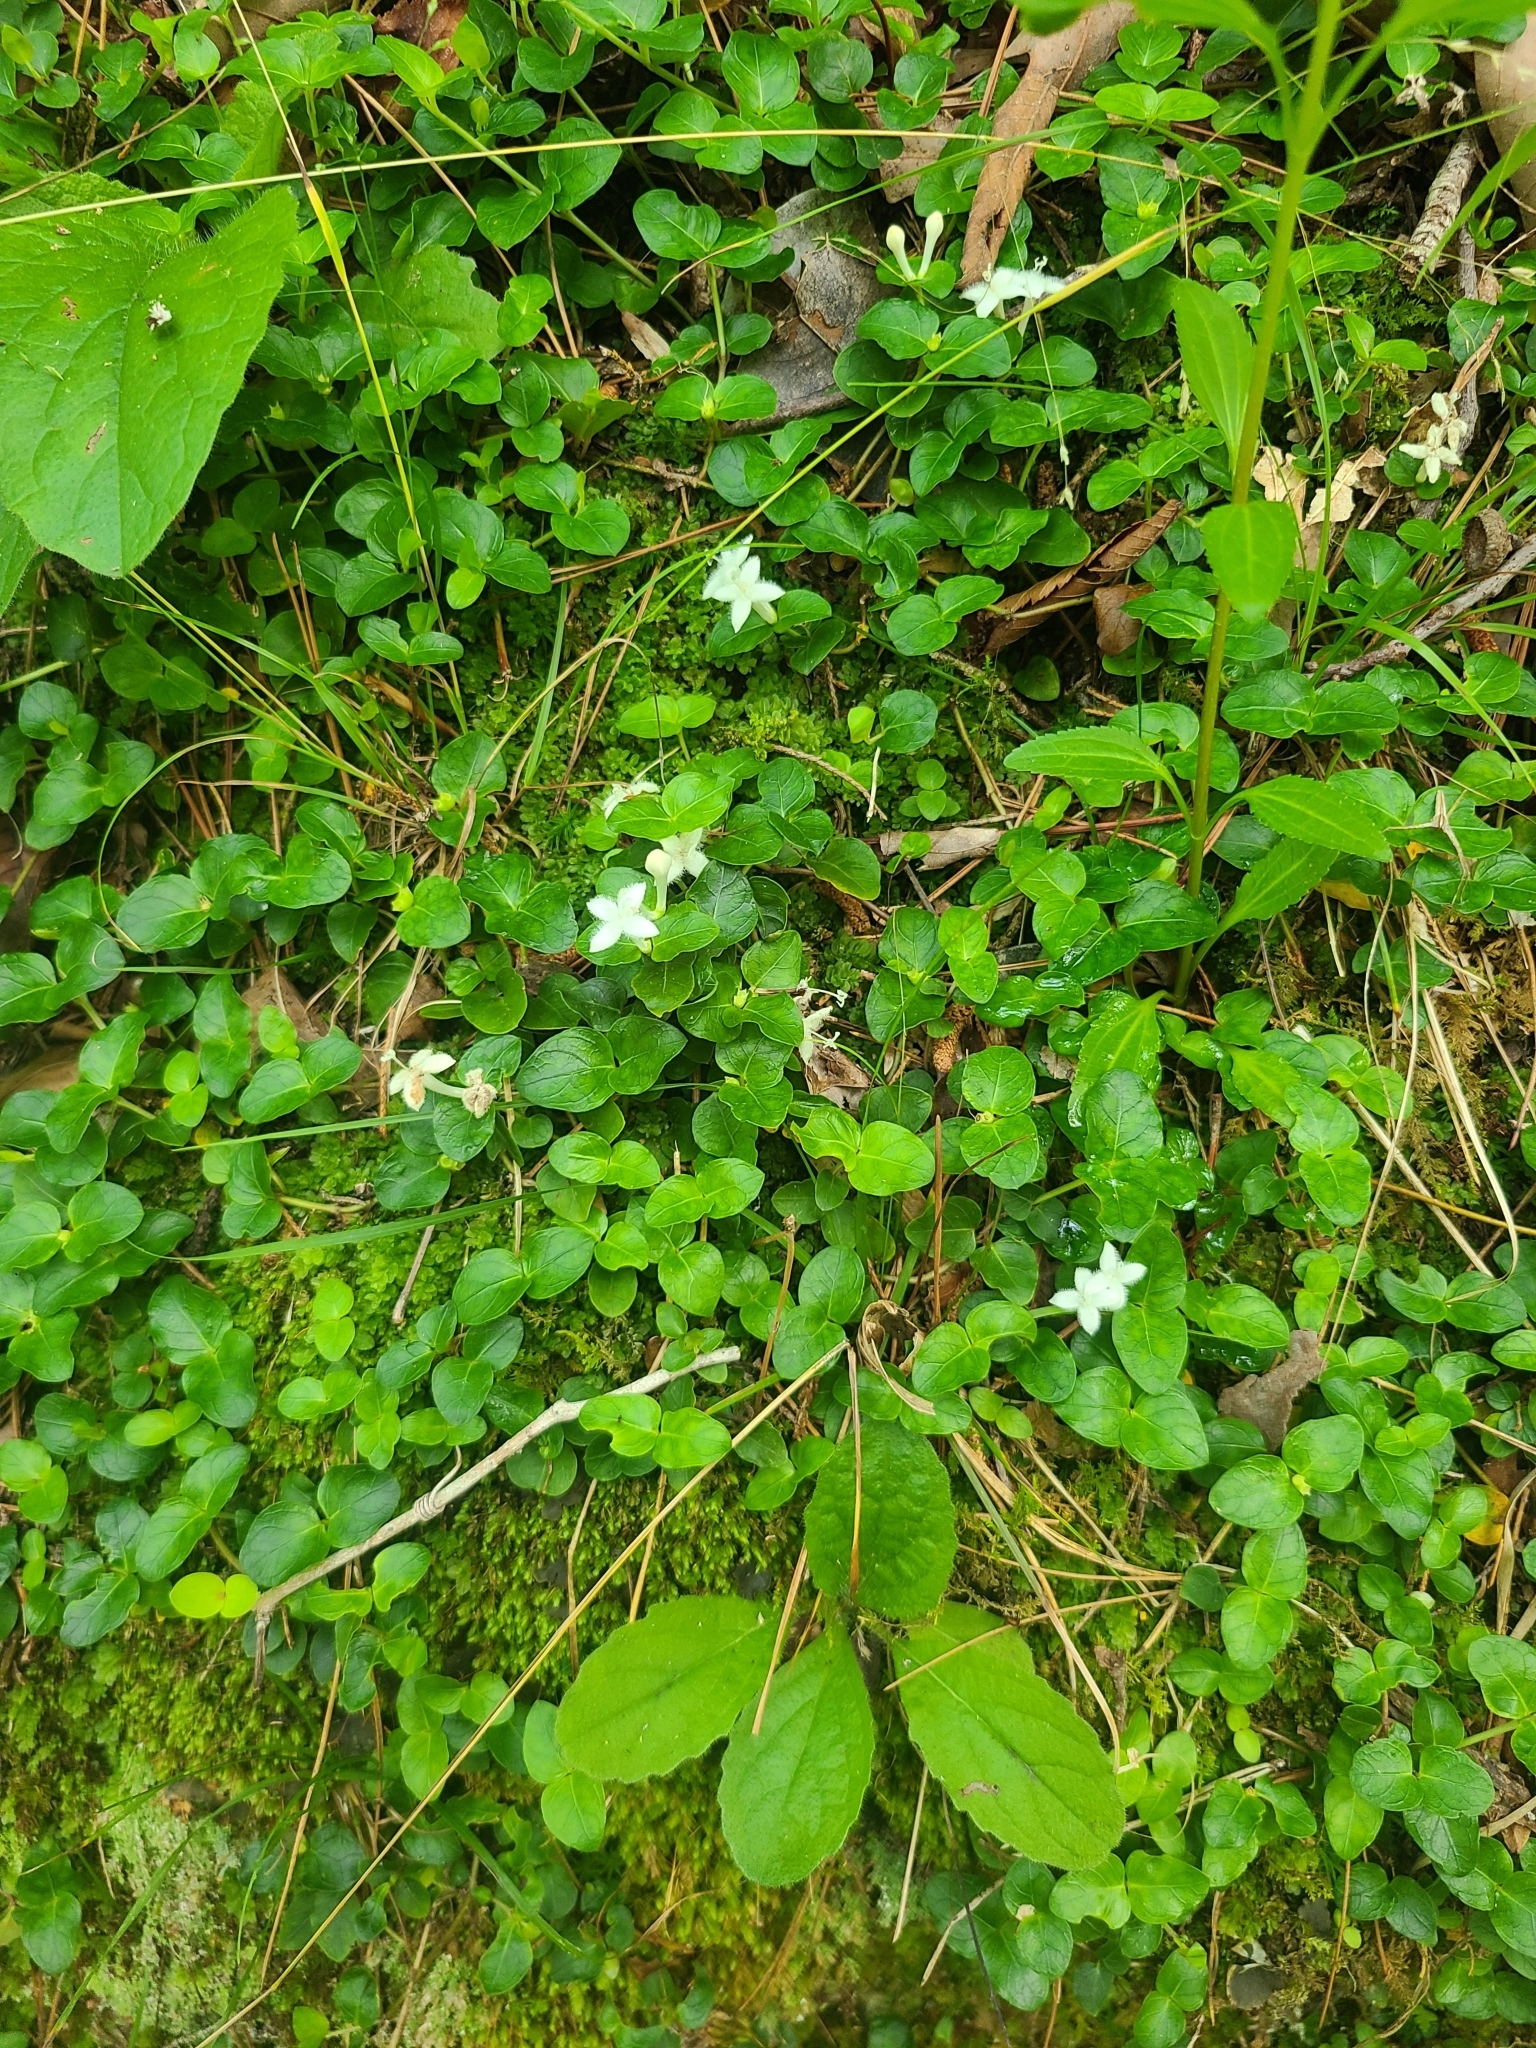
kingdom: Plantae
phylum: Tracheophyta
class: Magnoliopsida
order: Gentianales
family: Rubiaceae
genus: Mitchella
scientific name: Mitchella repens
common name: Partridge-berry
